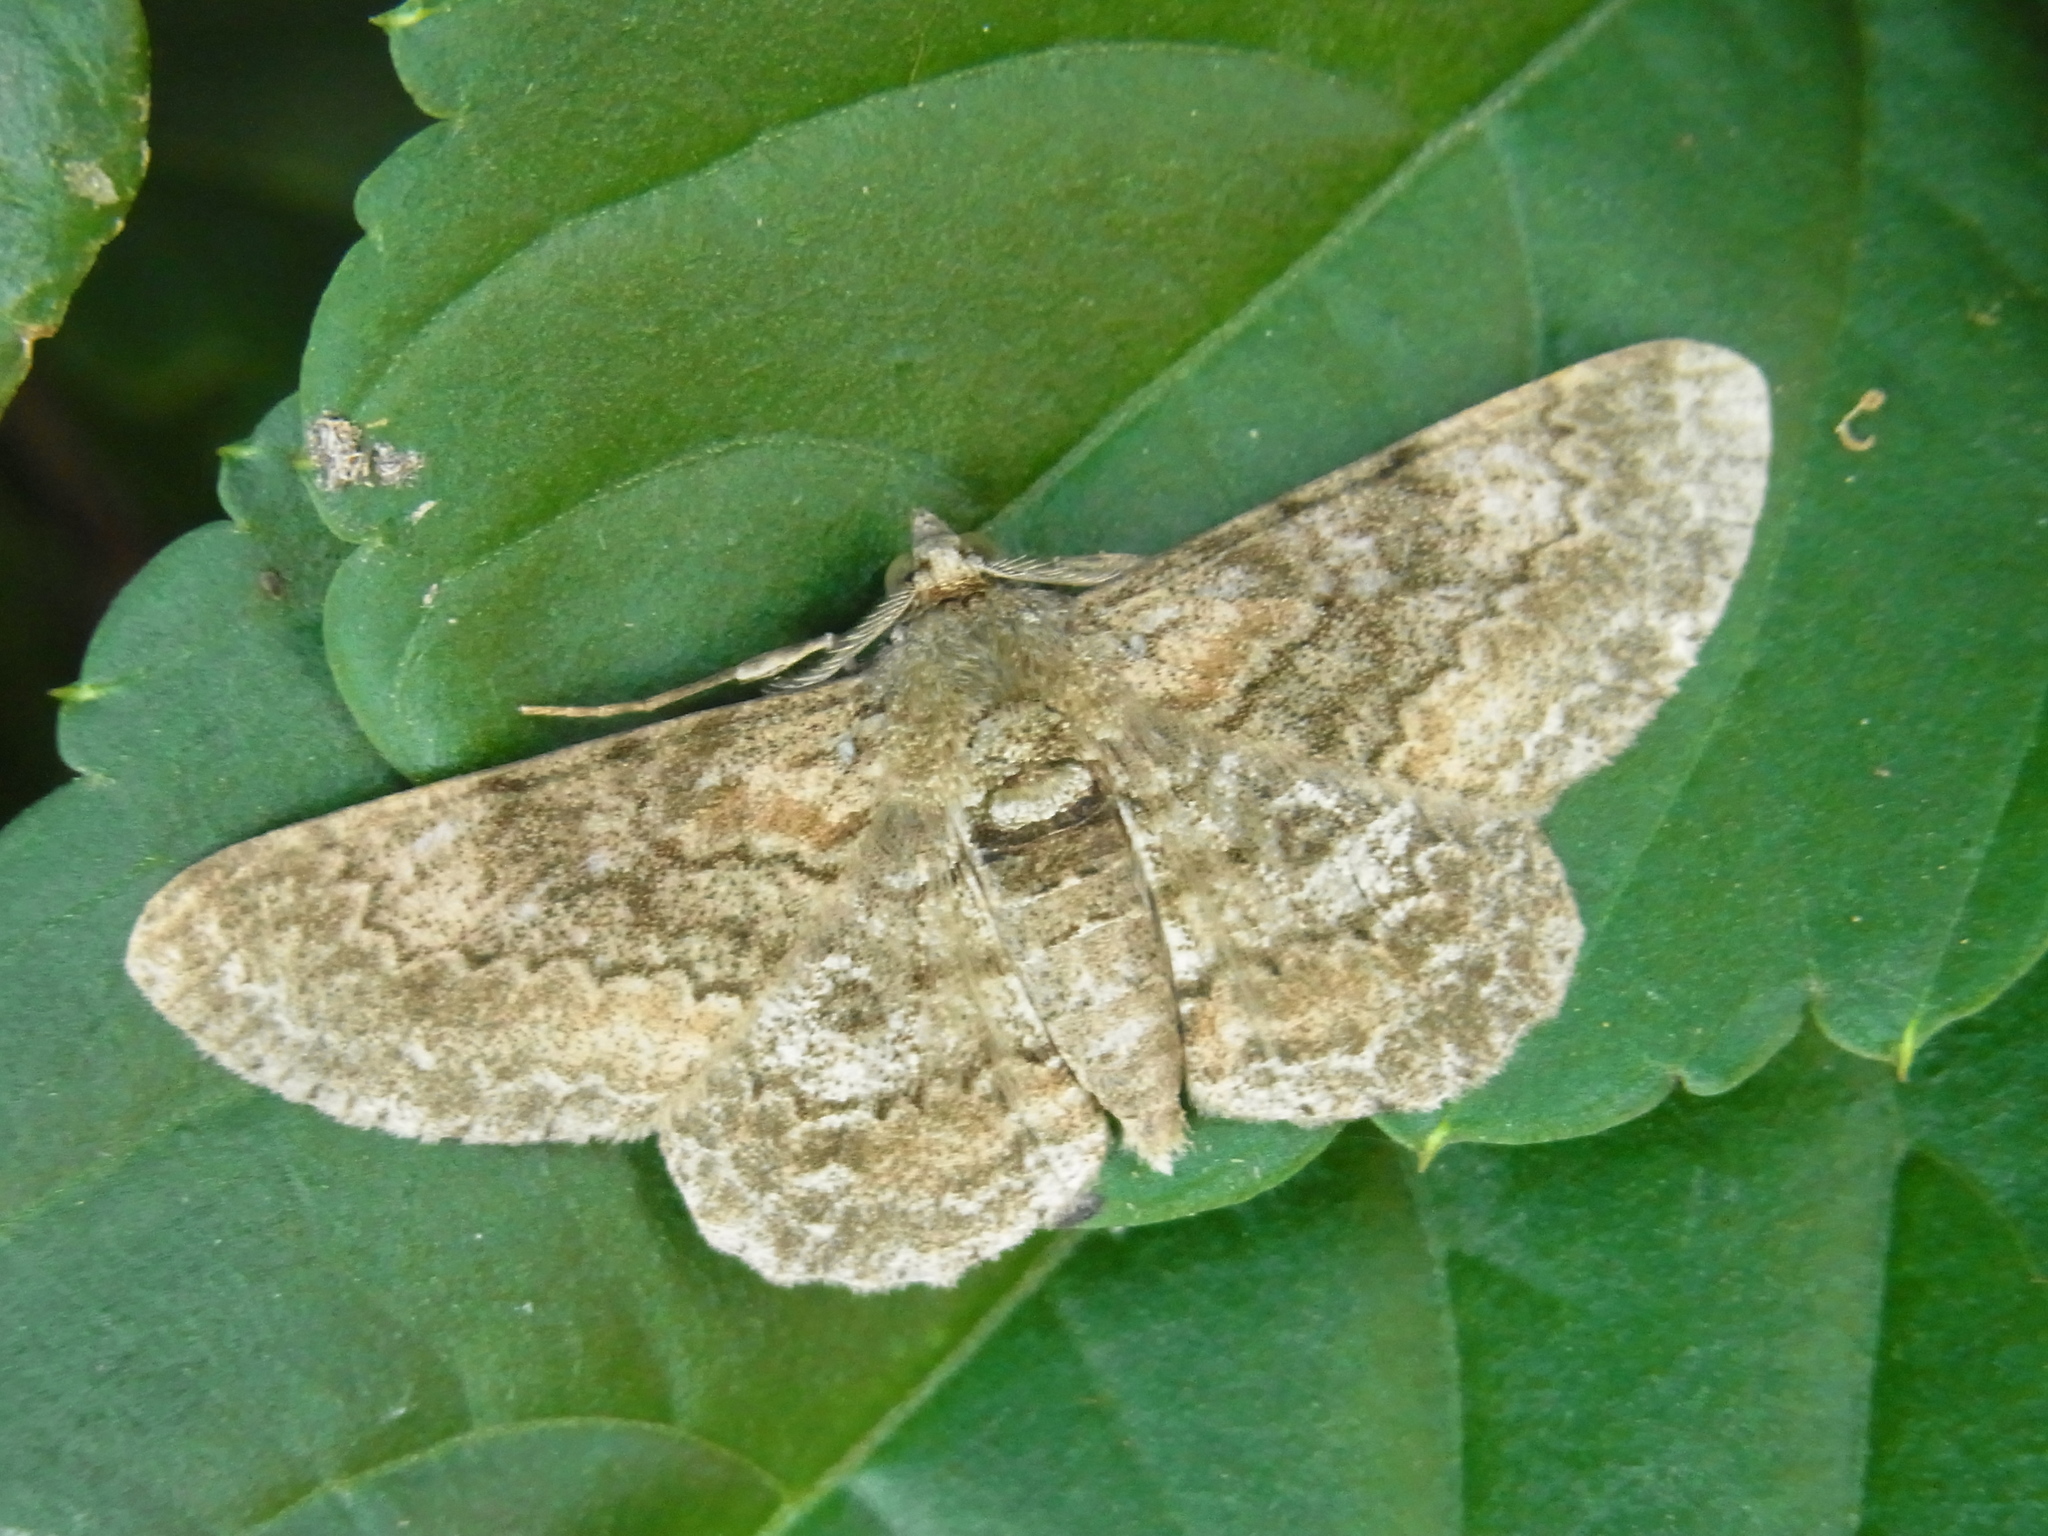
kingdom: Animalia
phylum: Arthropoda
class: Insecta
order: Lepidoptera
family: Geometridae
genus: Cleora
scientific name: Cleora repulsaria
